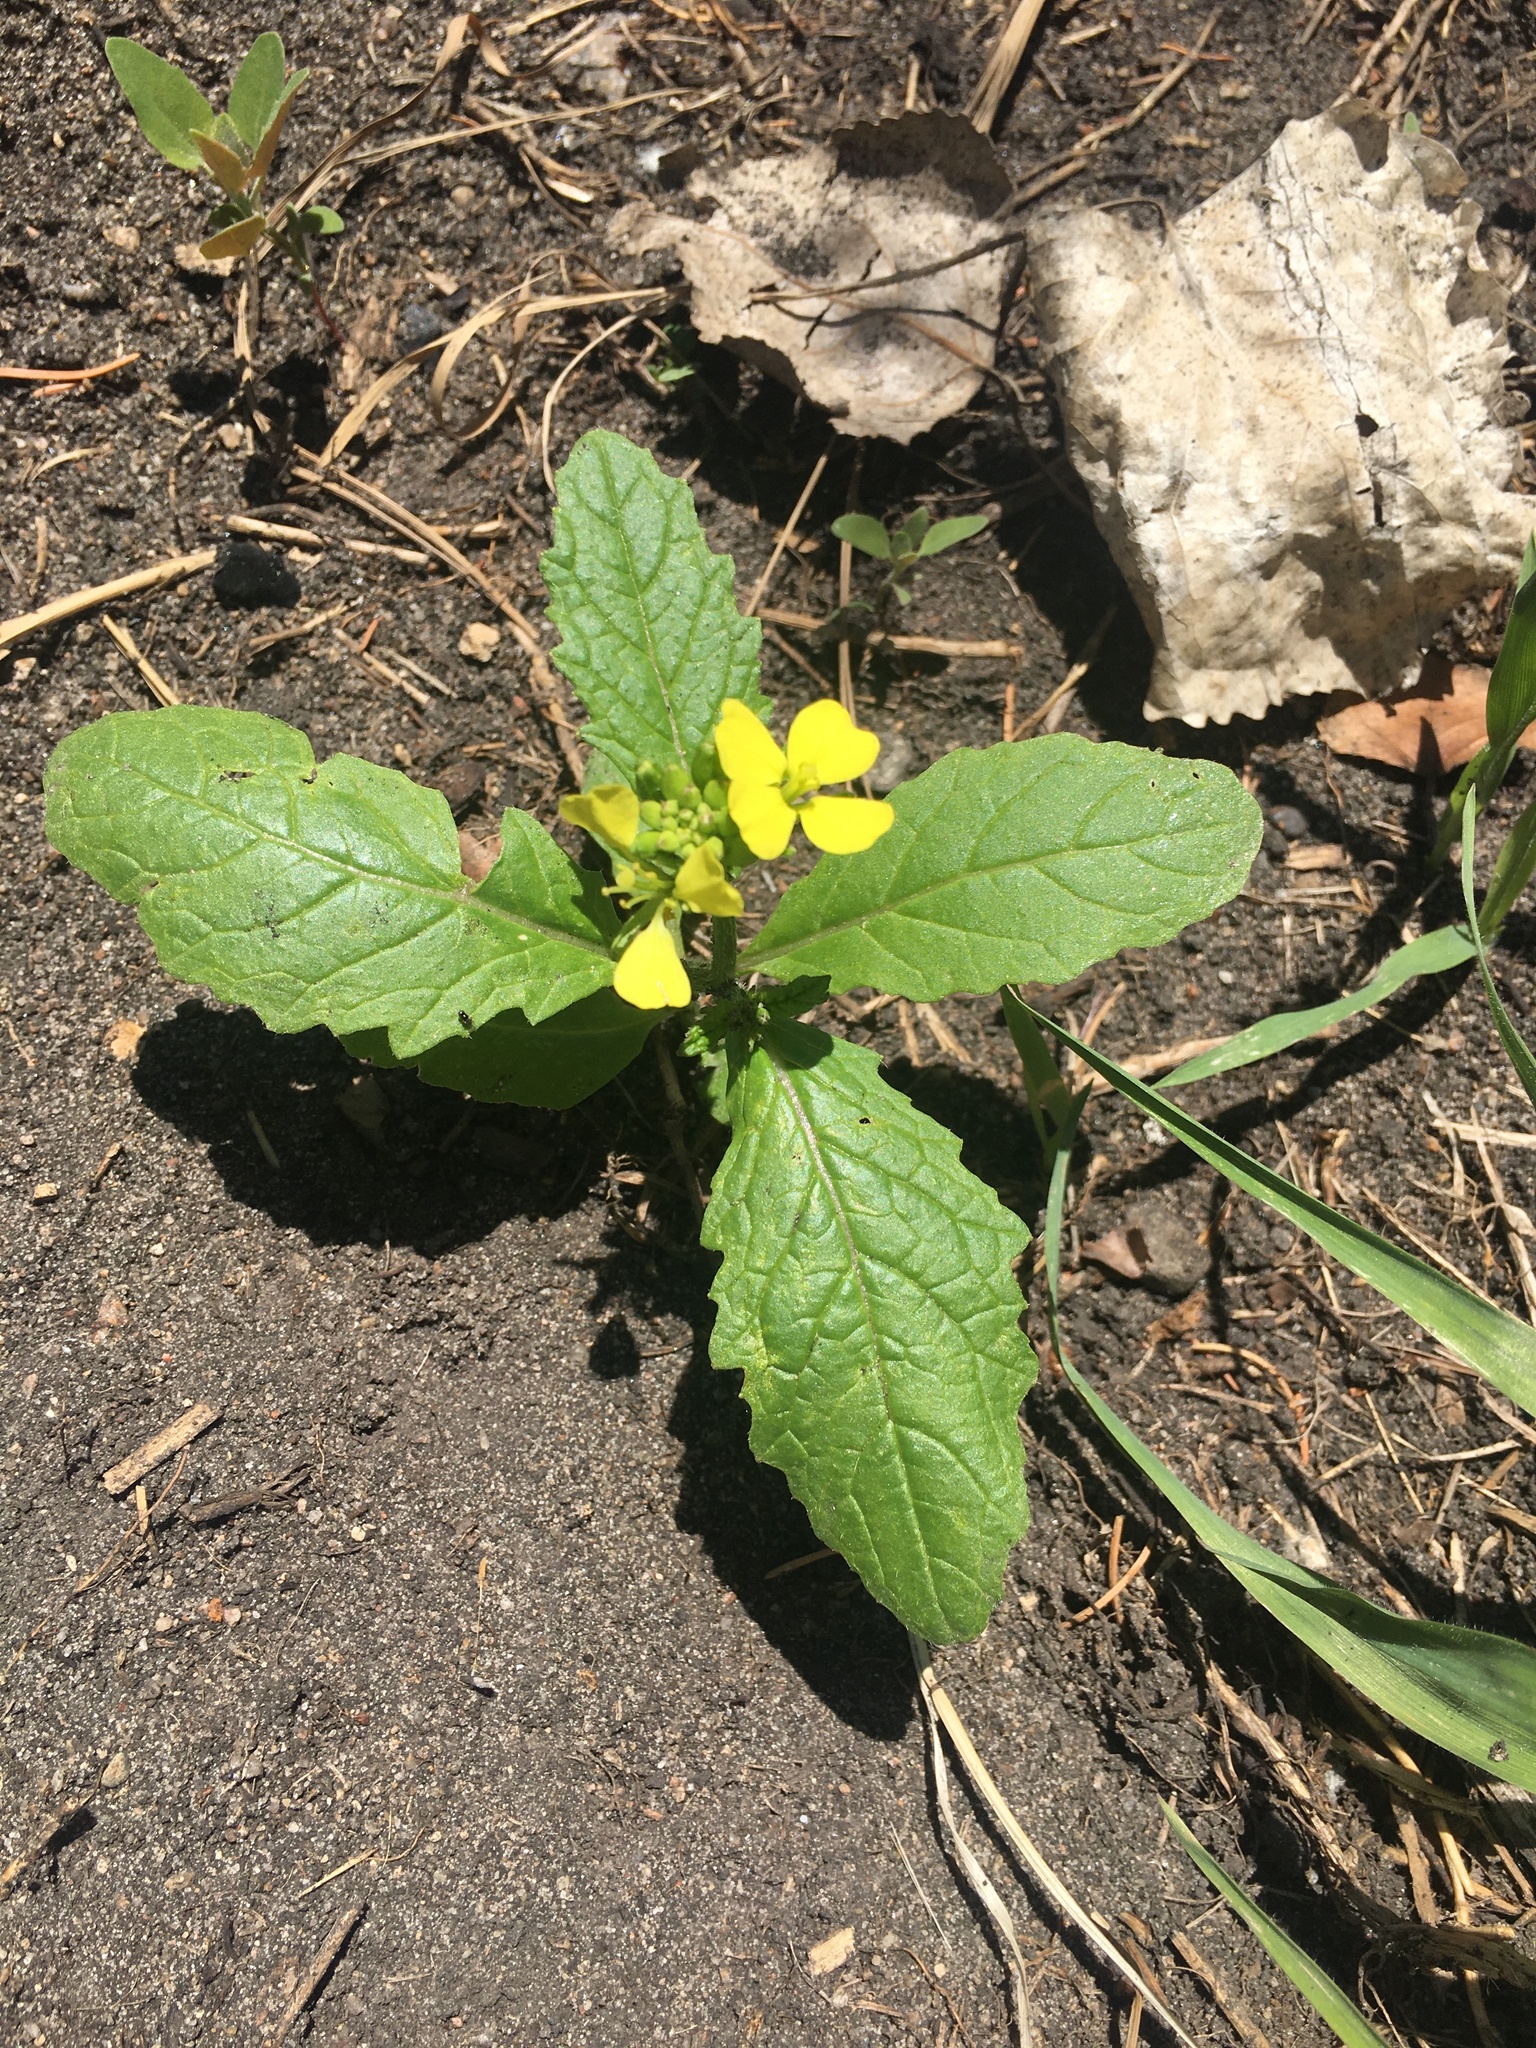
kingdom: Plantae
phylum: Tracheophyta
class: Magnoliopsida
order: Brassicales
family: Brassicaceae
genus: Sinapis
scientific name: Sinapis arvensis
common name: Charlock
